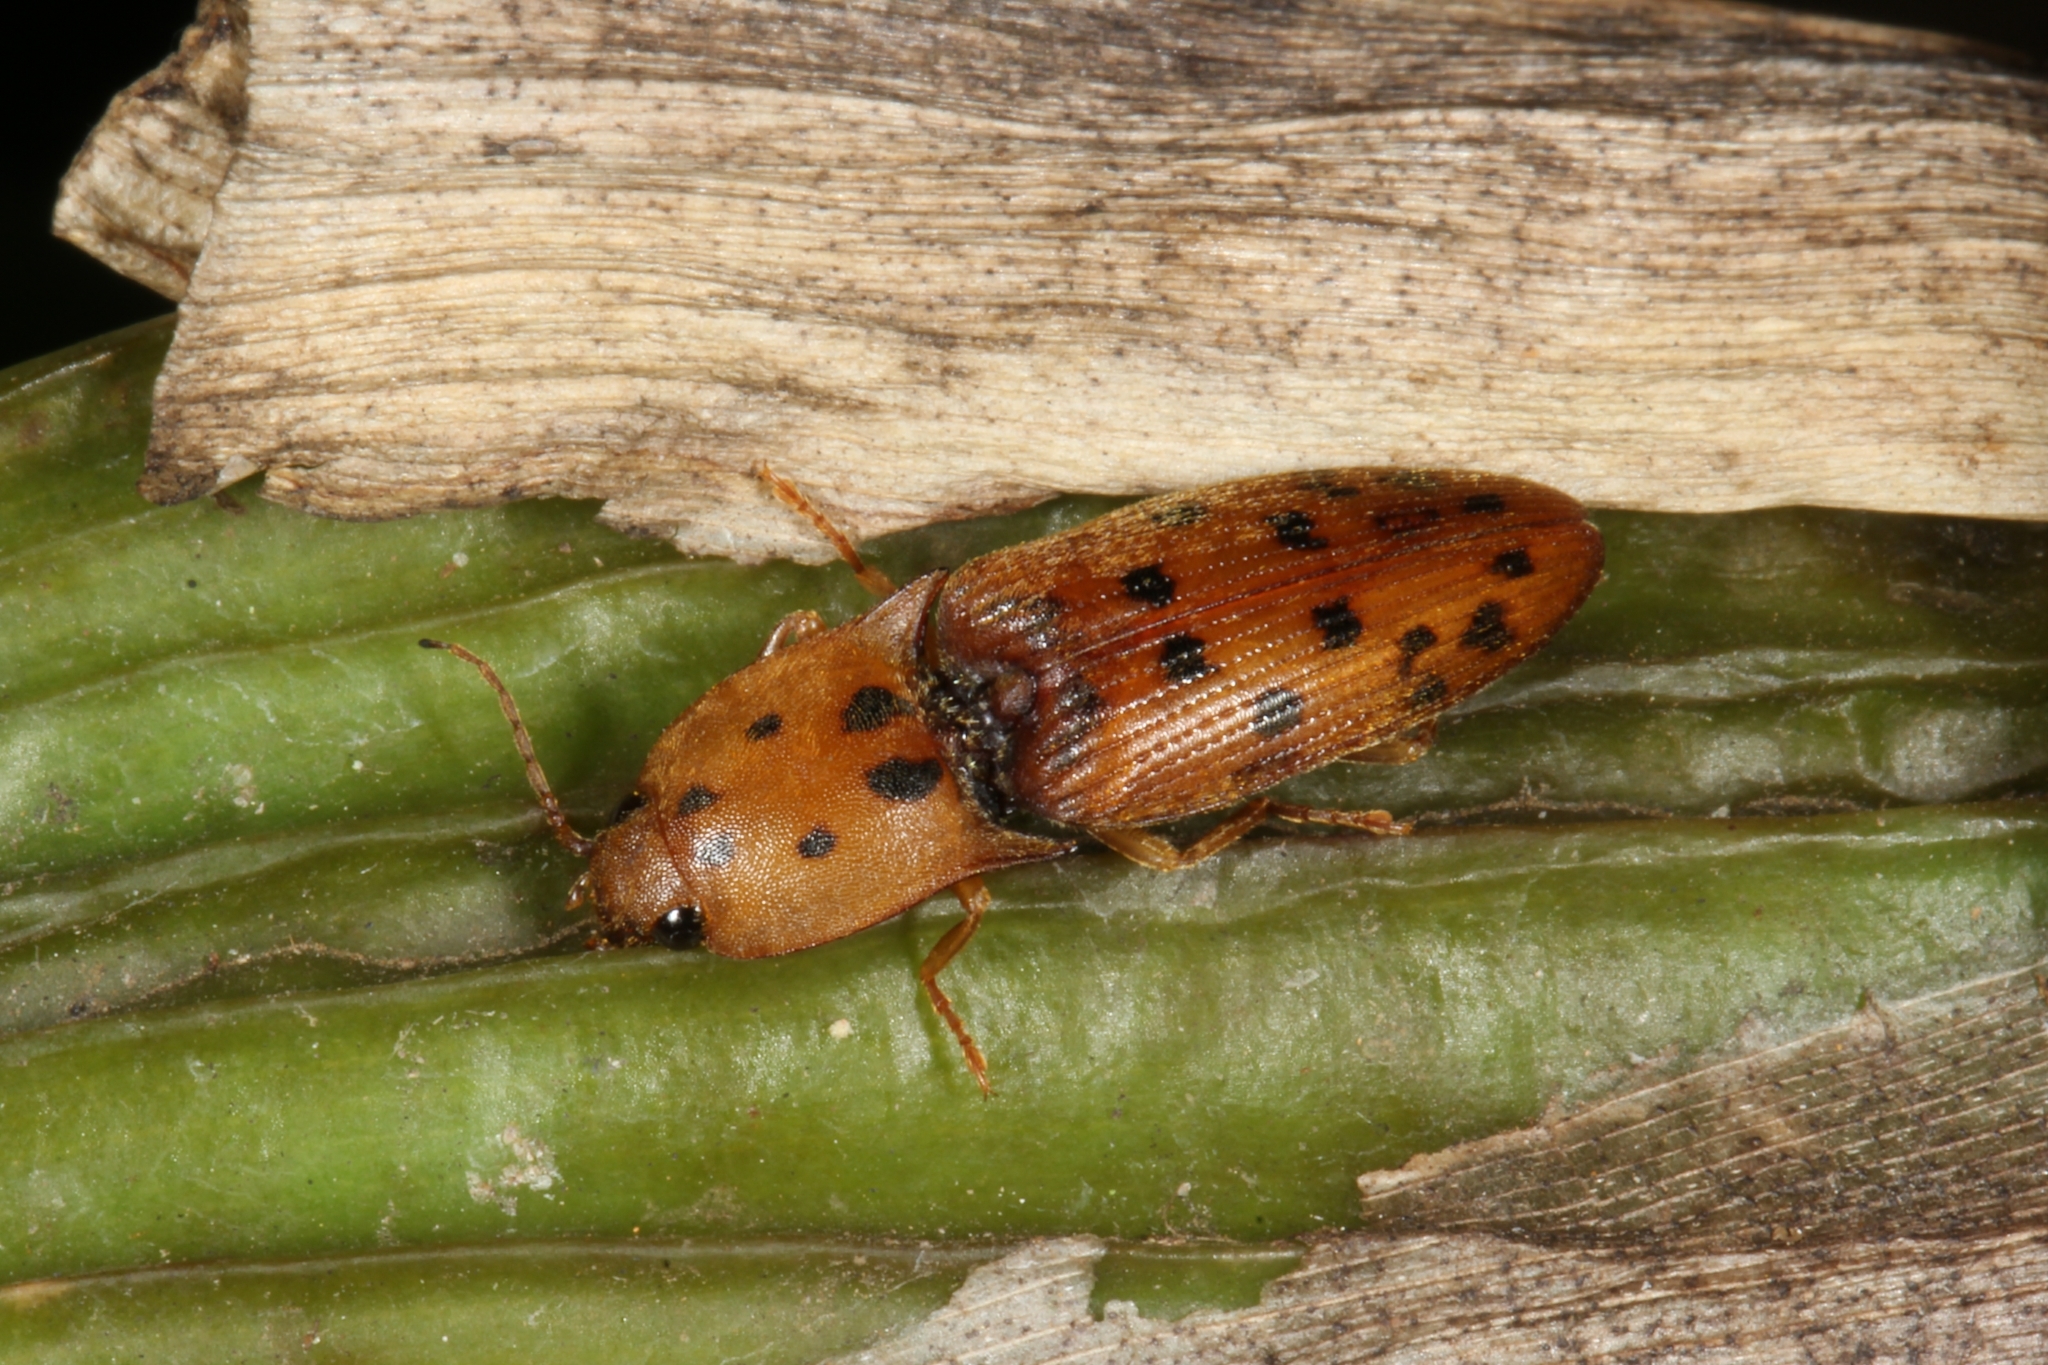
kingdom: Animalia
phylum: Arthropoda
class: Insecta
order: Coleoptera
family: Elateridae
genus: Monocrepidius
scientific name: Monocrepidius apiatus
